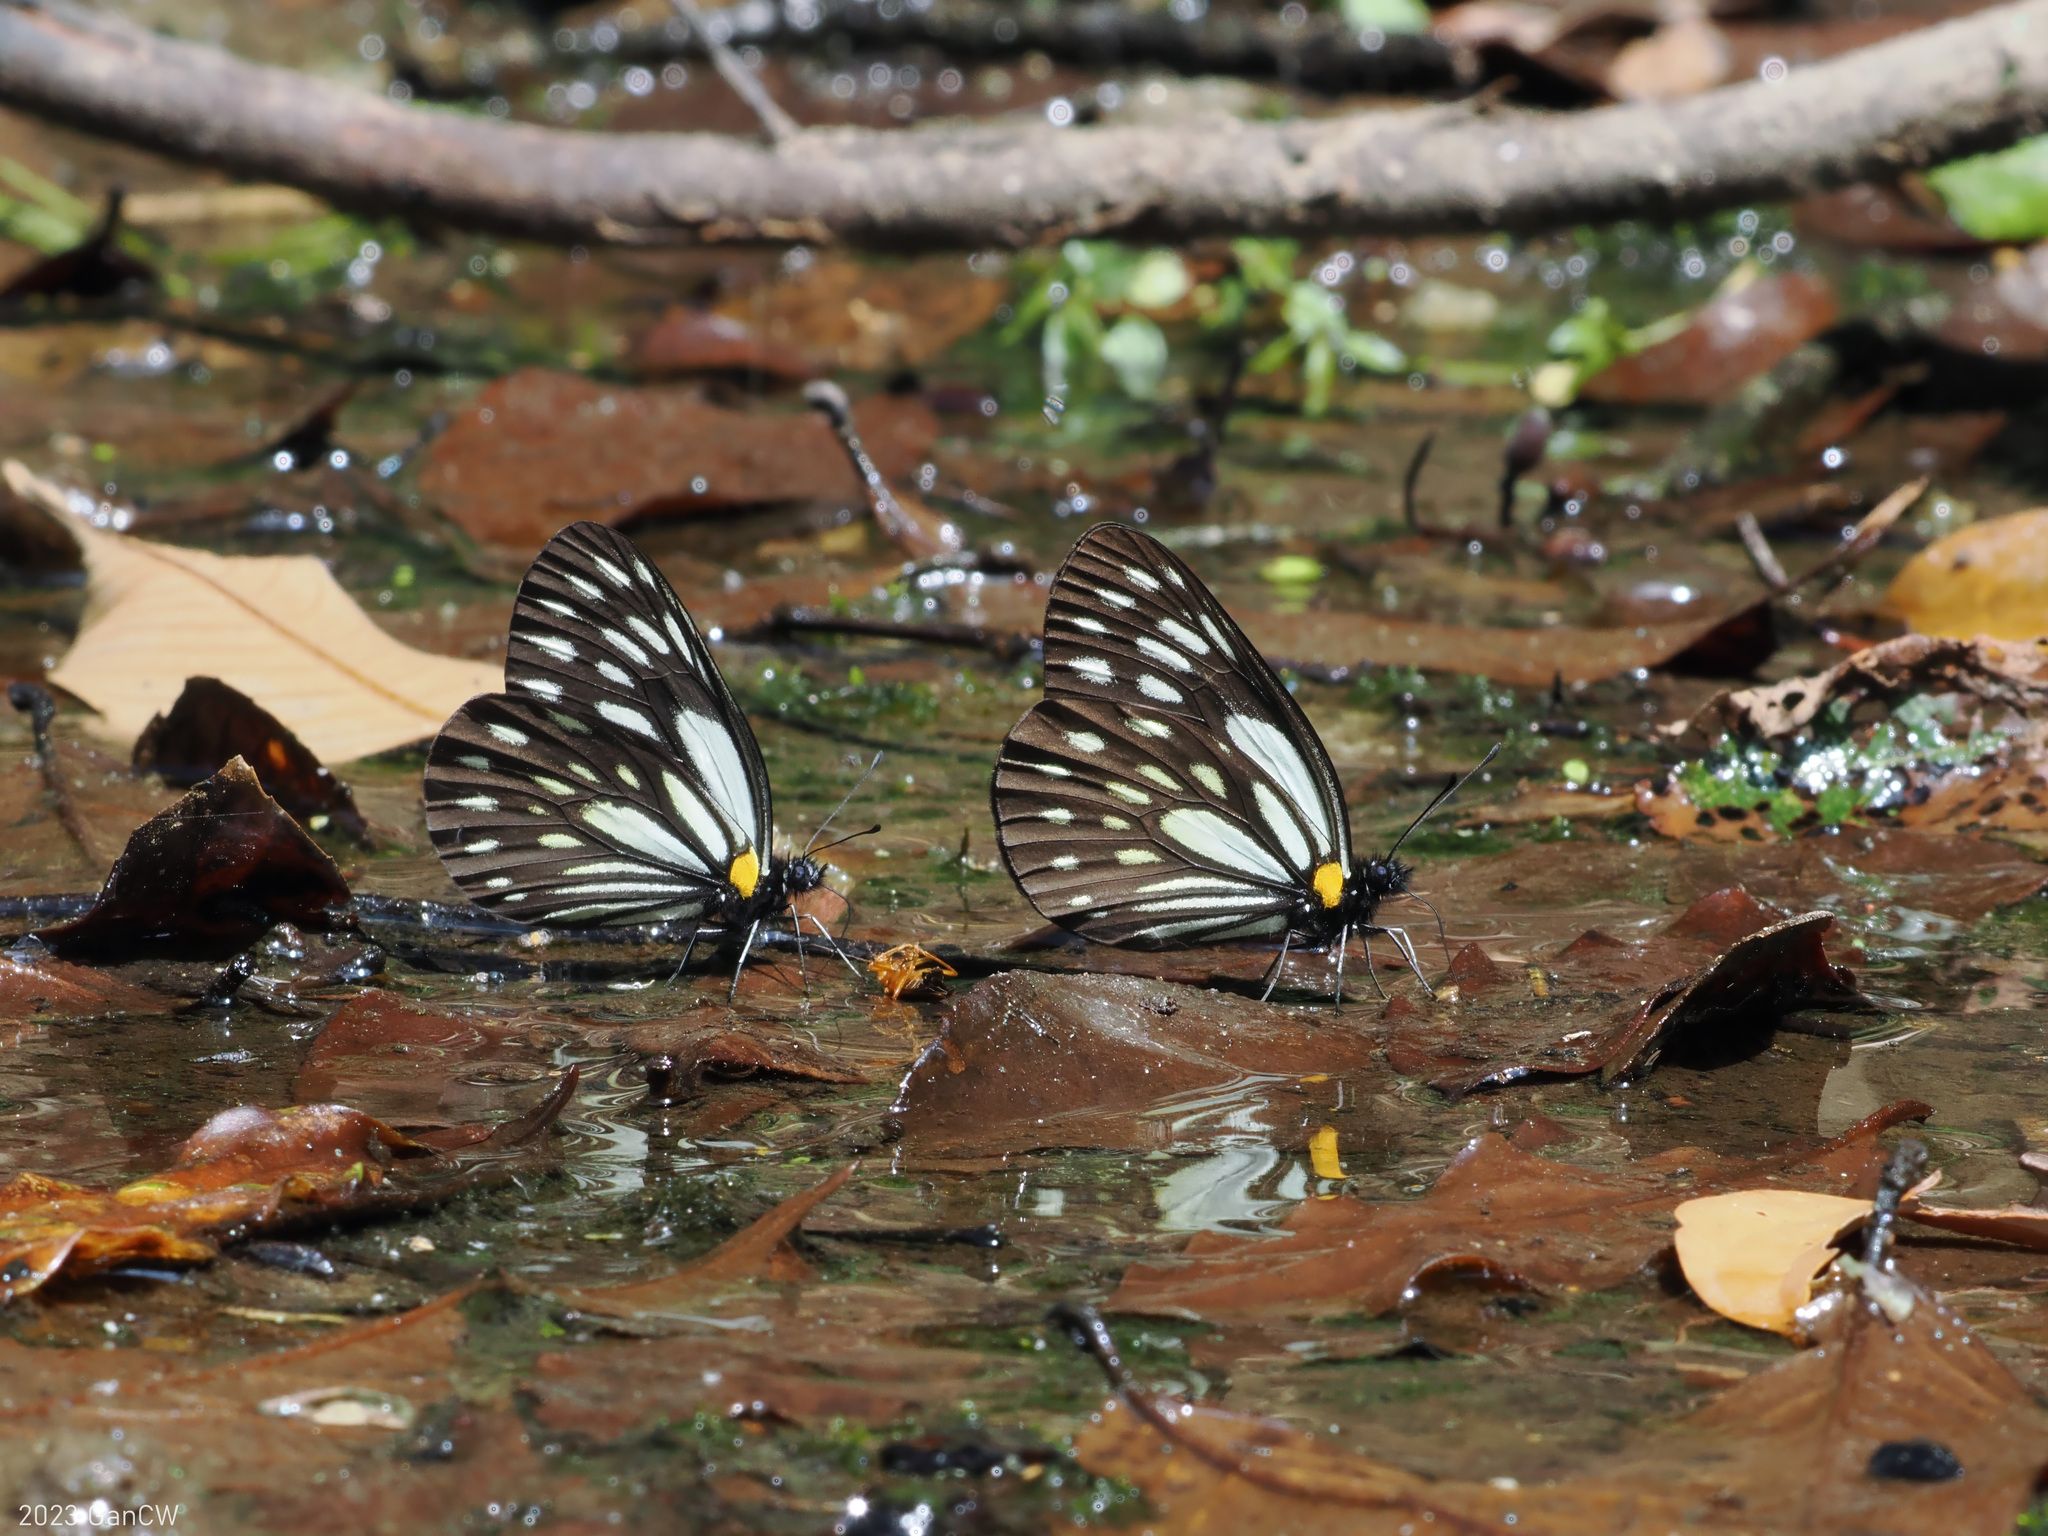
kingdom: Animalia
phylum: Arthropoda
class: Insecta
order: Lepidoptera
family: Pieridae
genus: Aporia
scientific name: Aporia agathon
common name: Great blackvein
